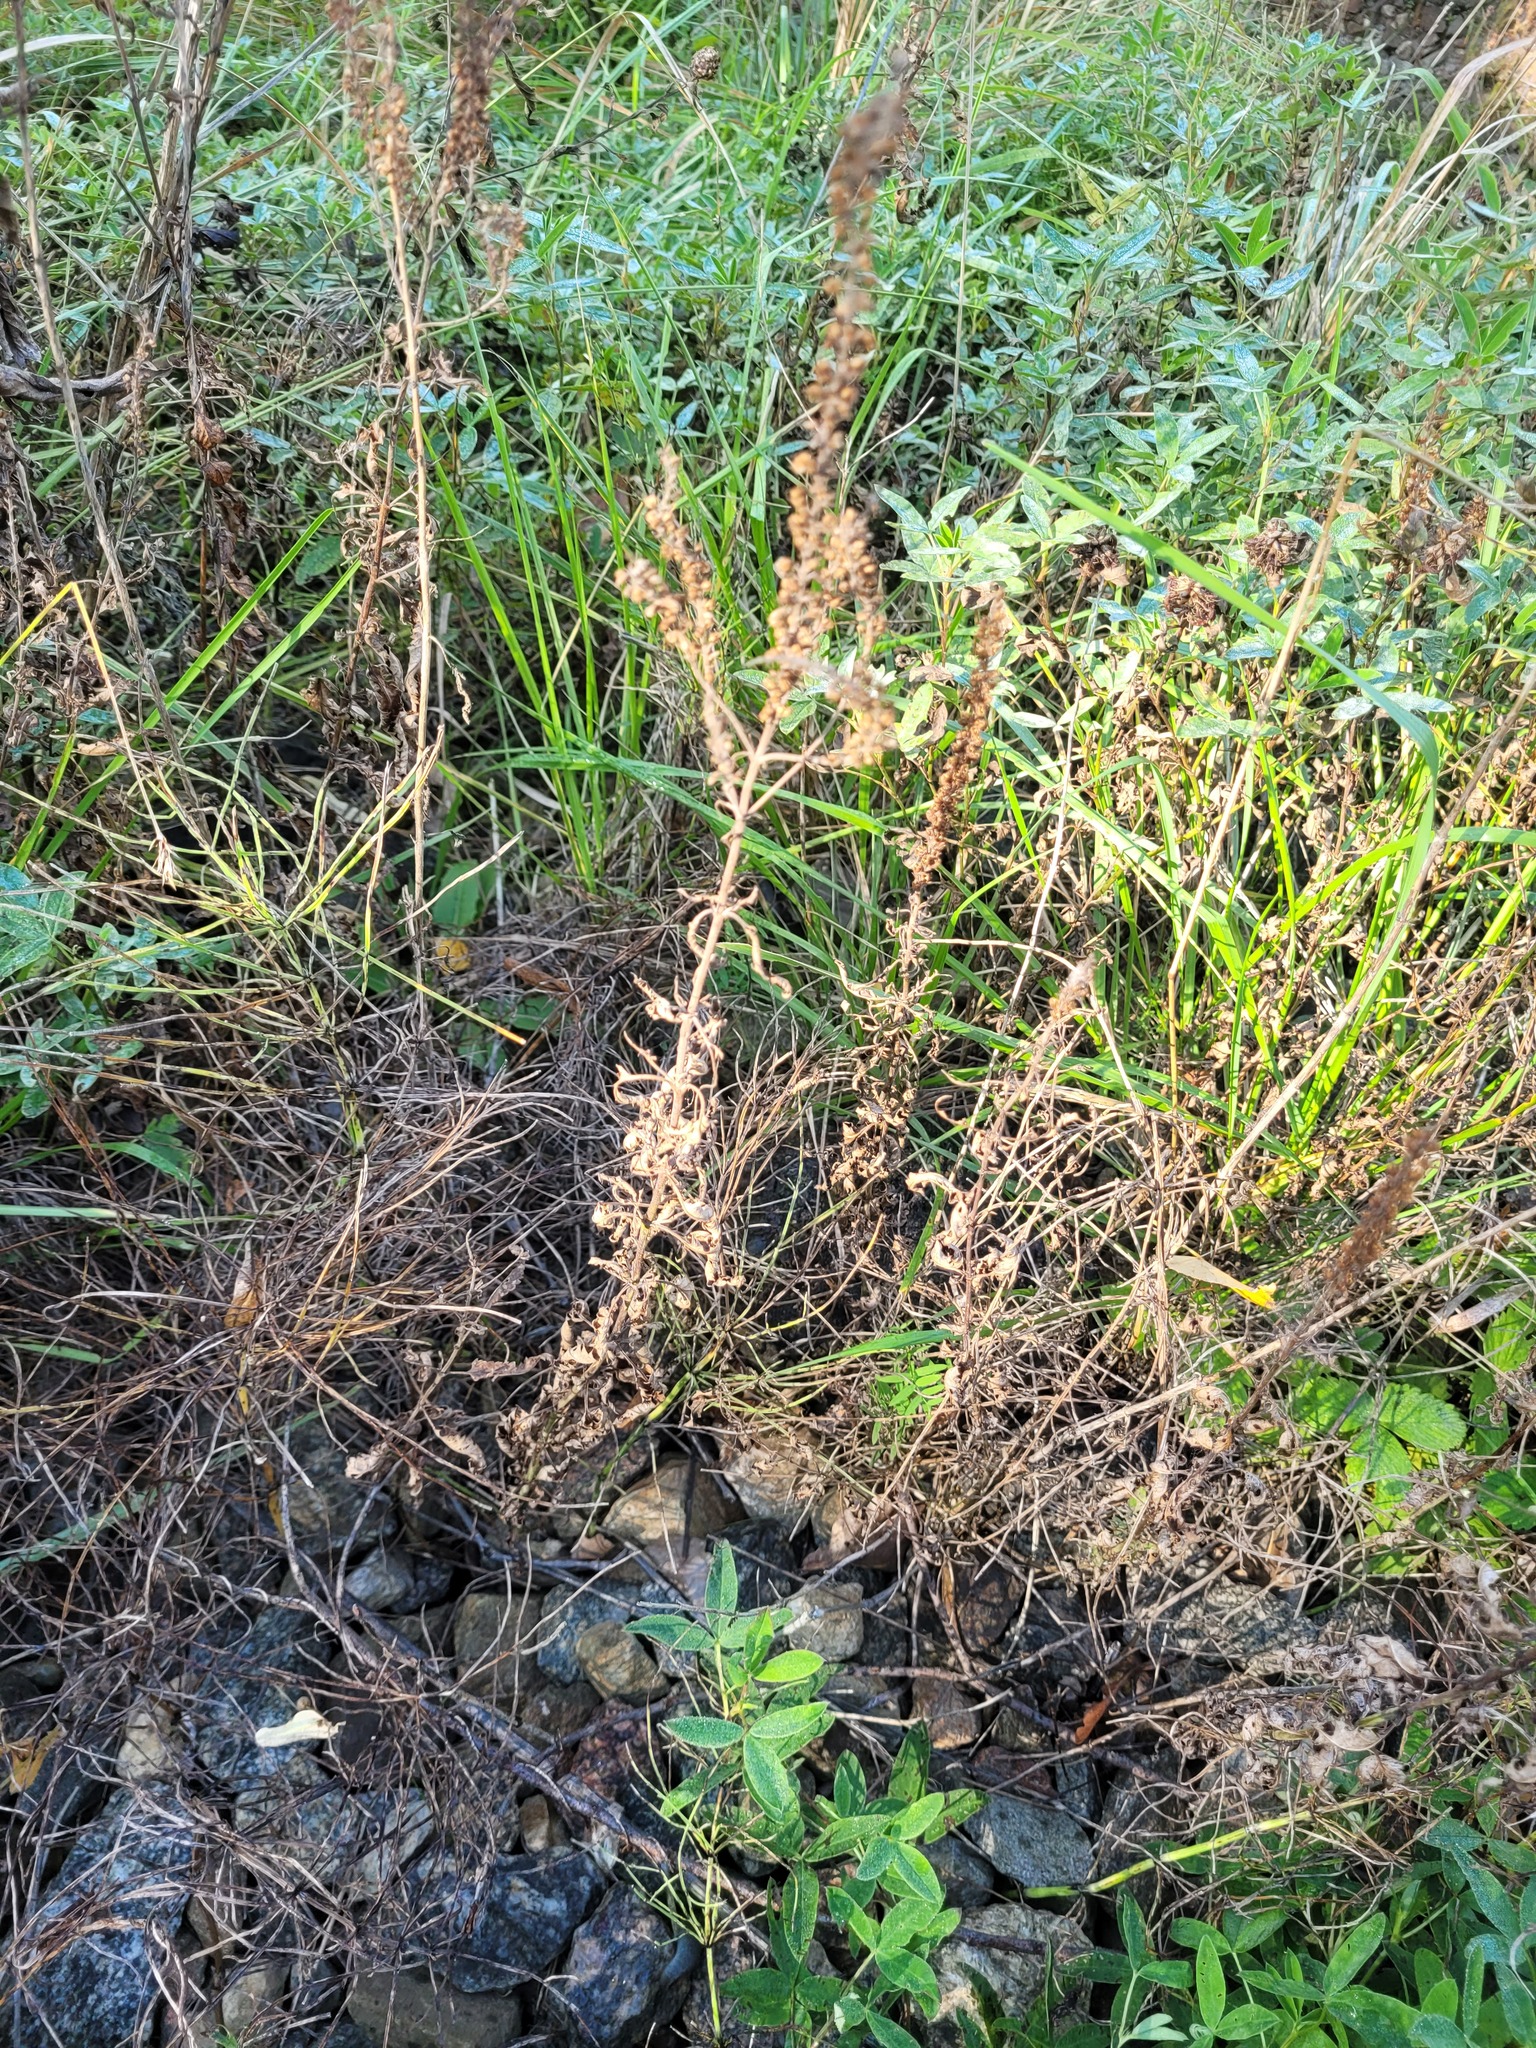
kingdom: Plantae
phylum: Tracheophyta
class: Magnoliopsida
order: Lamiales
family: Plantaginaceae
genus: Veronica
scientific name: Veronica longifolia
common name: Garden speedwell
